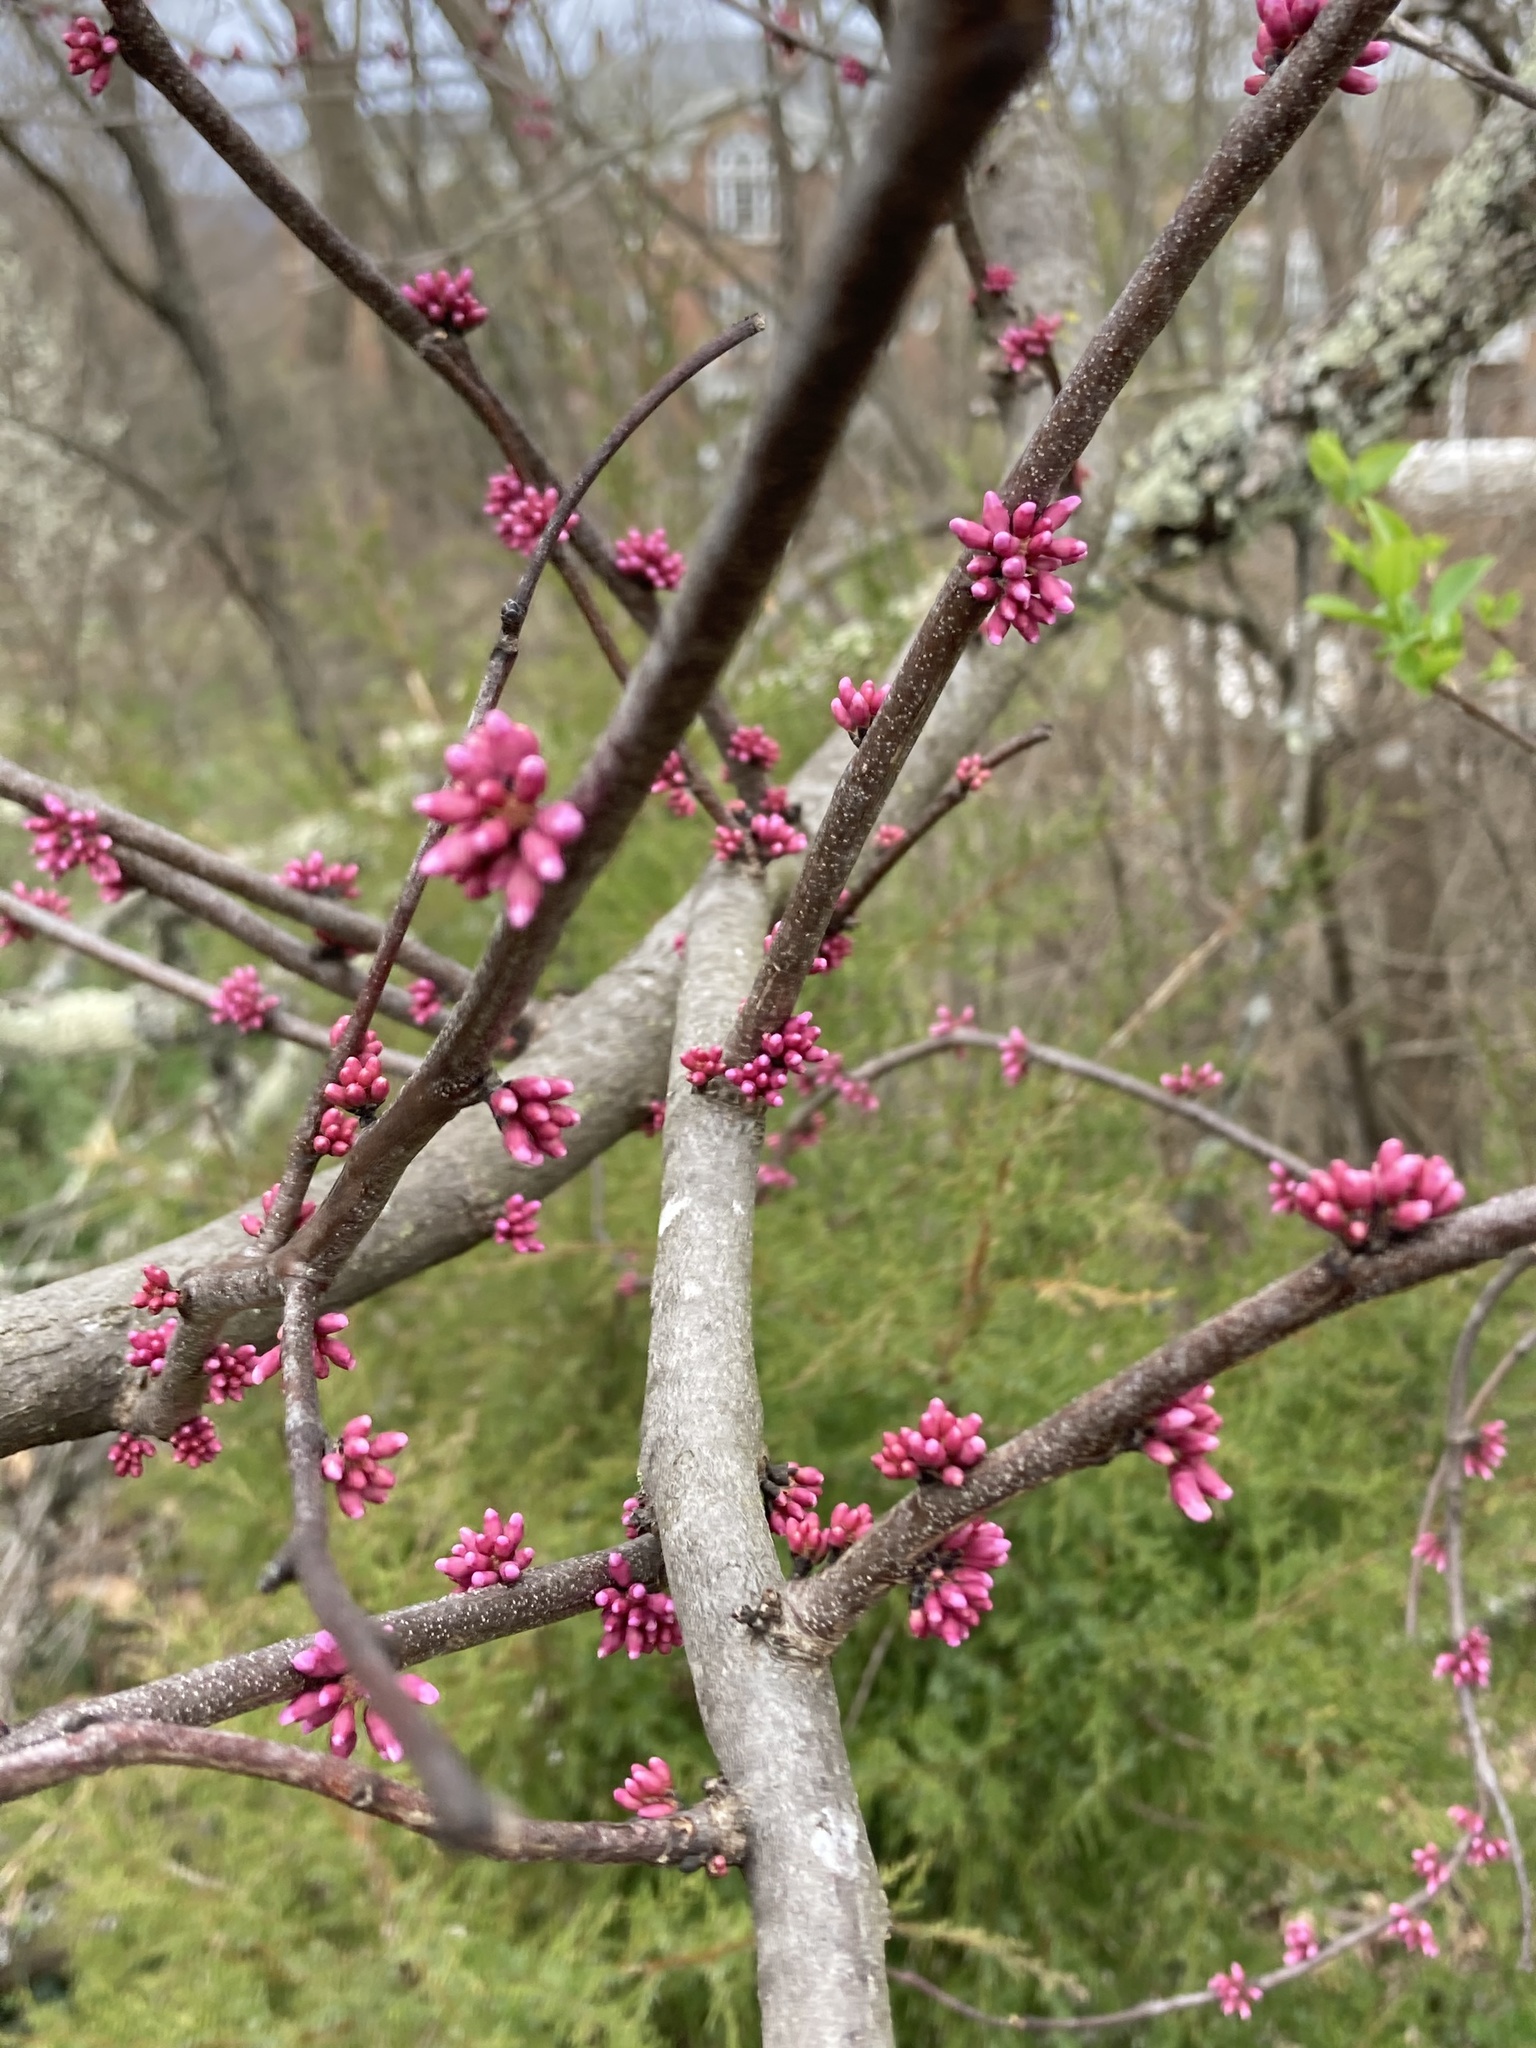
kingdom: Plantae
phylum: Tracheophyta
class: Magnoliopsida
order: Fabales
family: Fabaceae
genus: Cercis
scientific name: Cercis canadensis
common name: Eastern redbud
